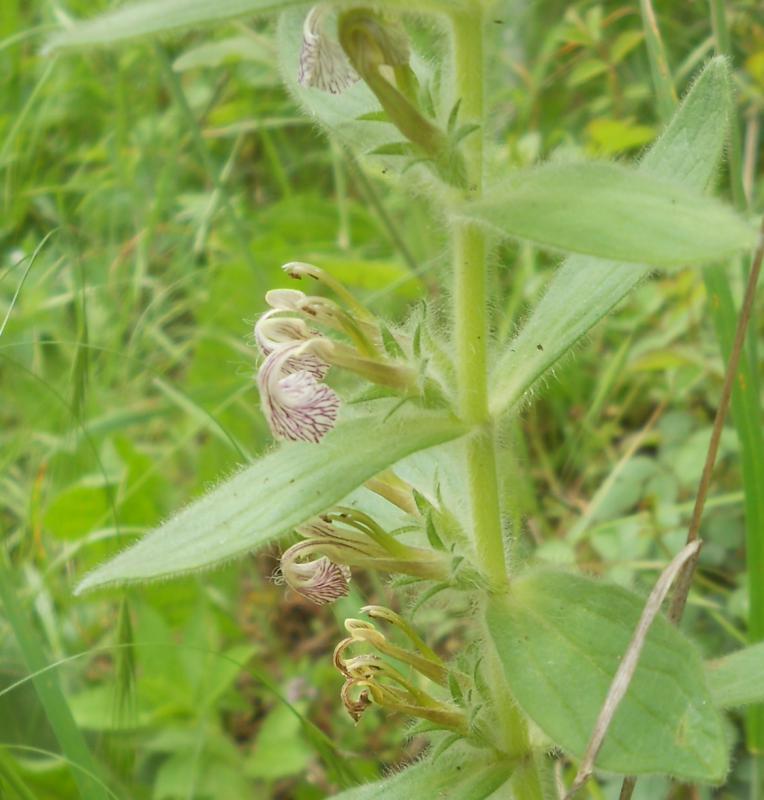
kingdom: Plantae
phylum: Tracheophyta
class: Magnoliopsida
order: Lamiales
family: Lamiaceae
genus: Ajuga
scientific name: Ajuga laxmannii
